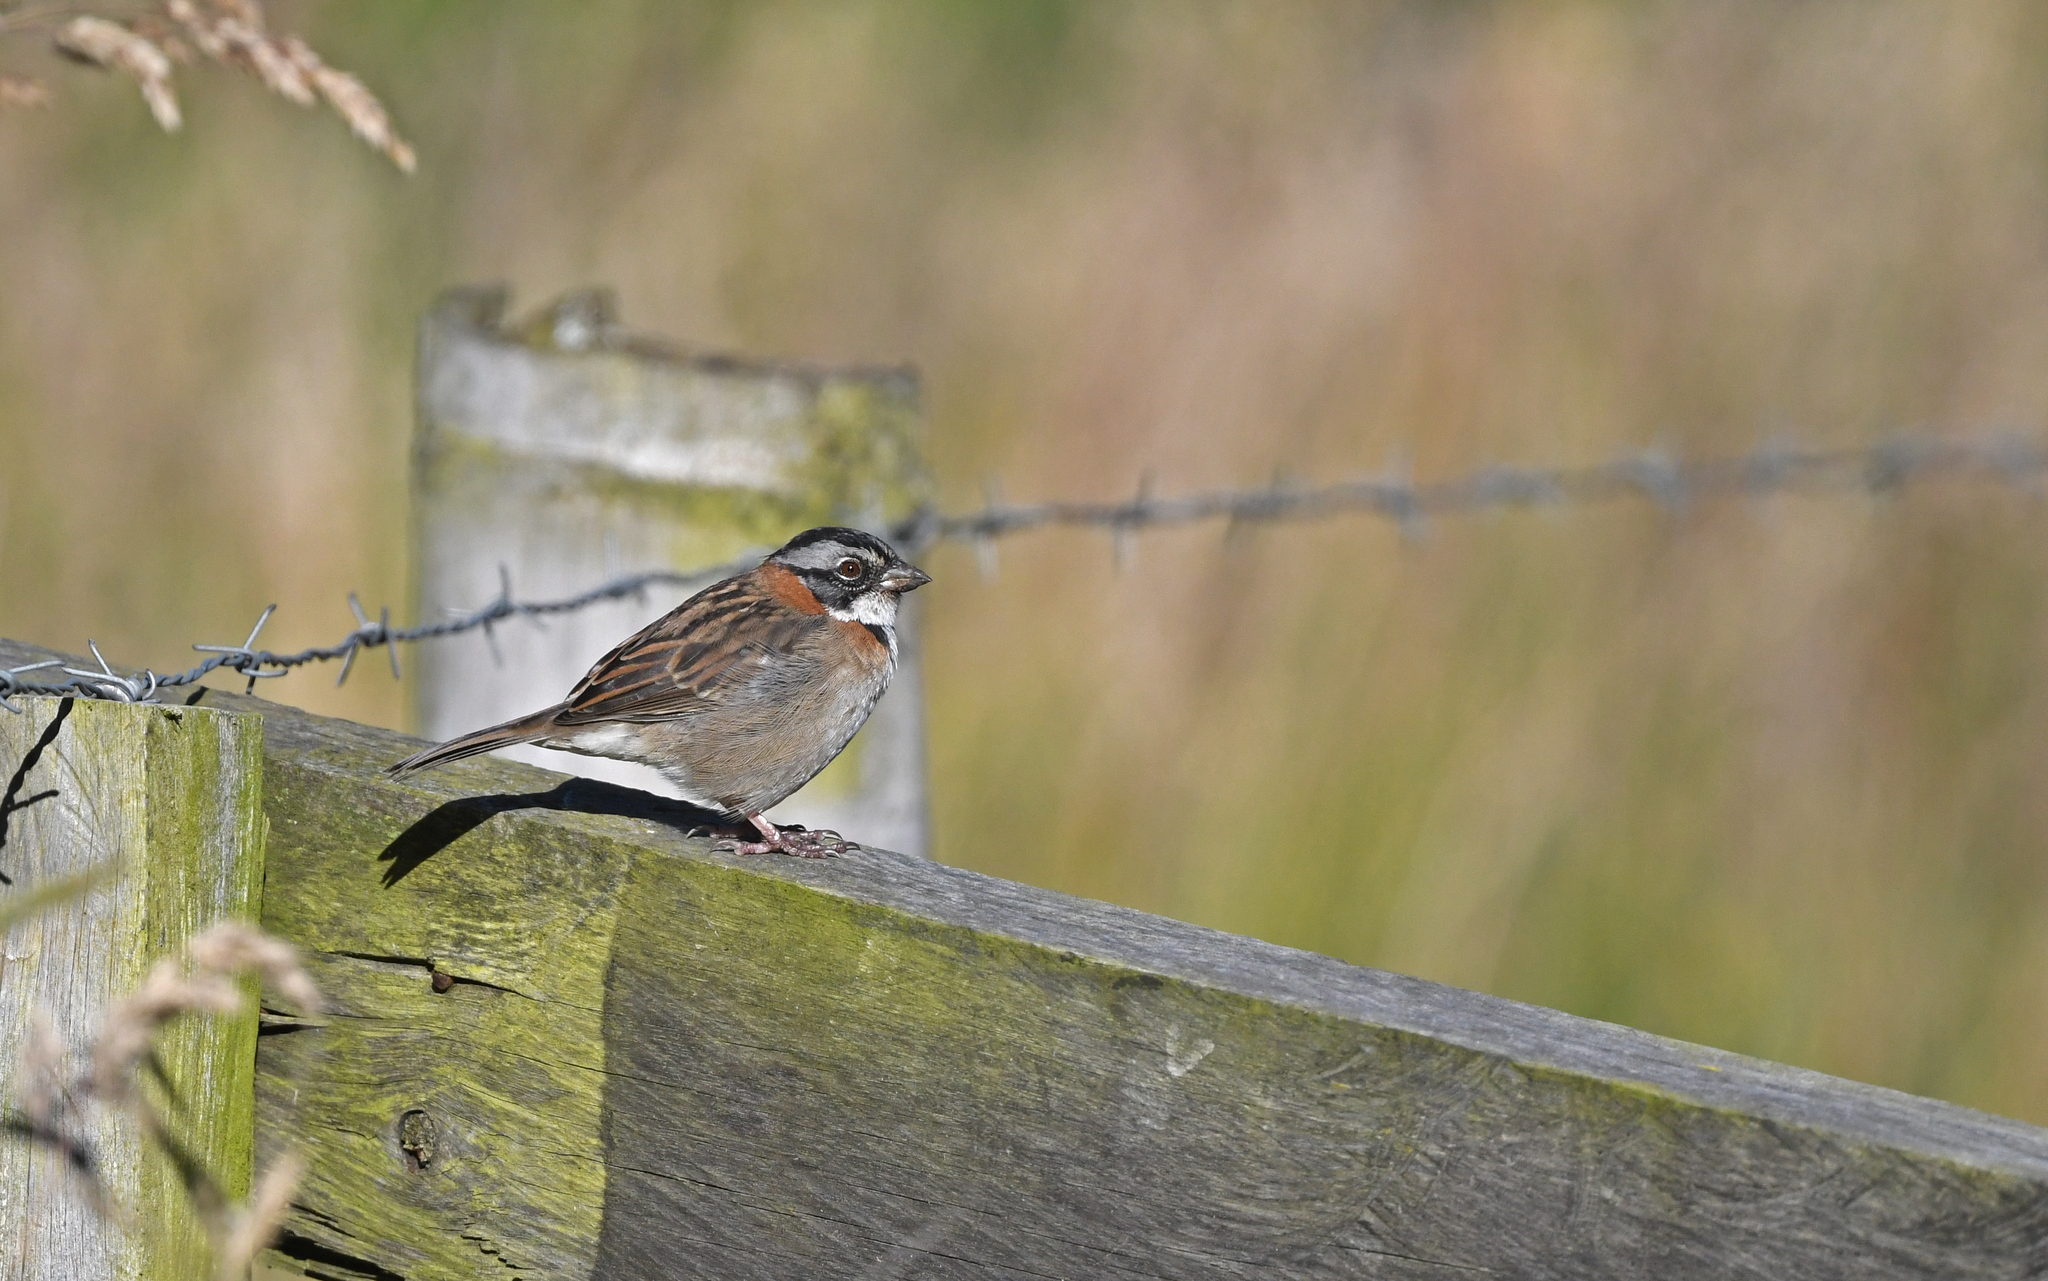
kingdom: Animalia
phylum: Chordata
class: Aves
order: Passeriformes
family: Passerellidae
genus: Zonotrichia
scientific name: Zonotrichia capensis
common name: Rufous-collared sparrow
